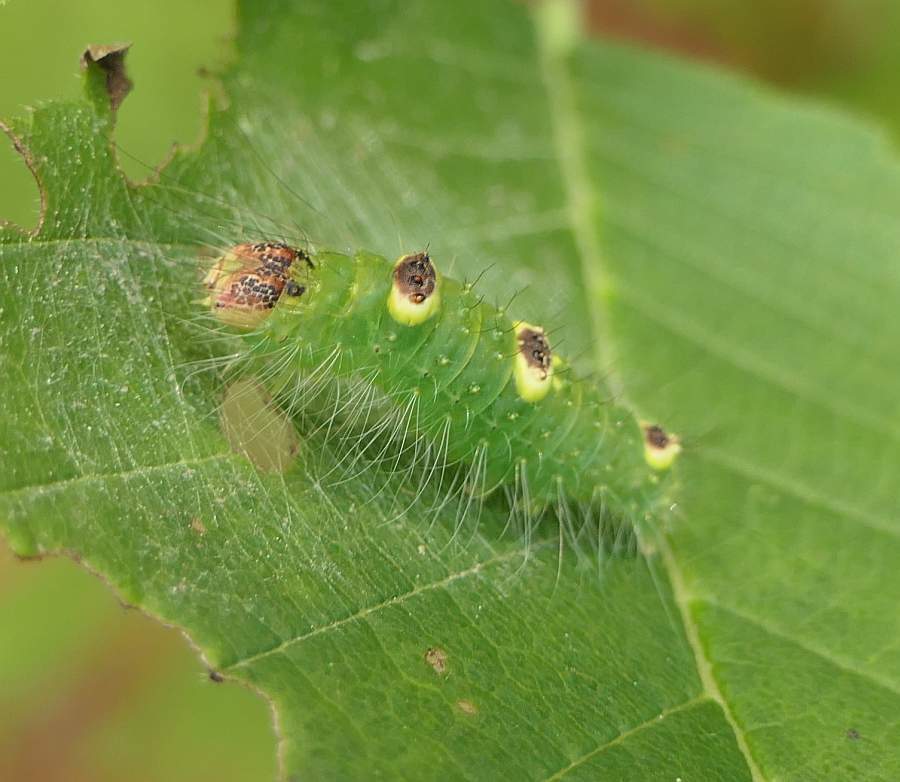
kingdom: Animalia
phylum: Arthropoda
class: Insecta
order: Lepidoptera
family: Noctuidae
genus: Acronicta
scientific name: Acronicta morula
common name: Ochre dagger
